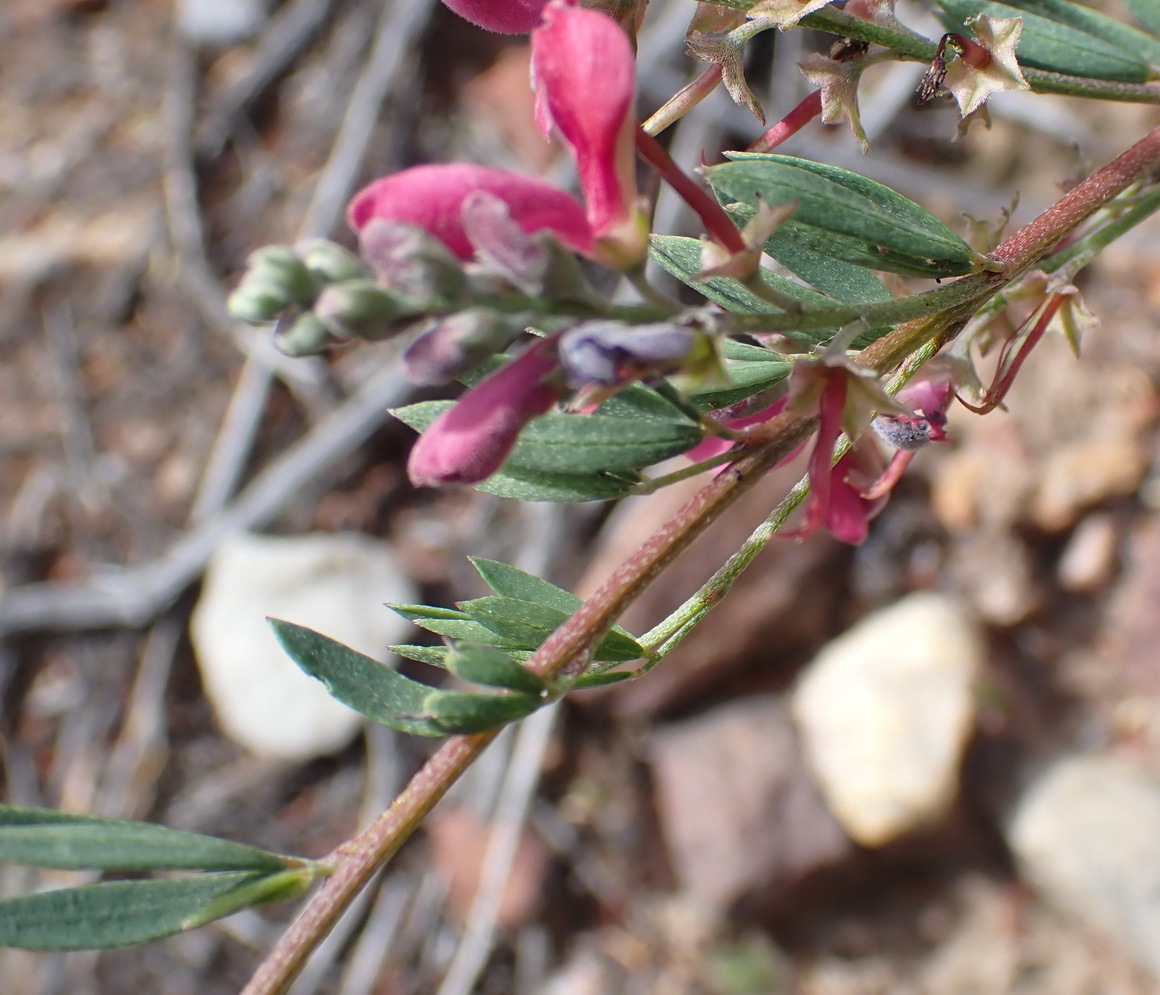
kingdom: Plantae
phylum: Tracheophyta
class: Magnoliopsida
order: Fabales
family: Fabaceae
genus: Indigofera
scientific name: Indigofera denudata
